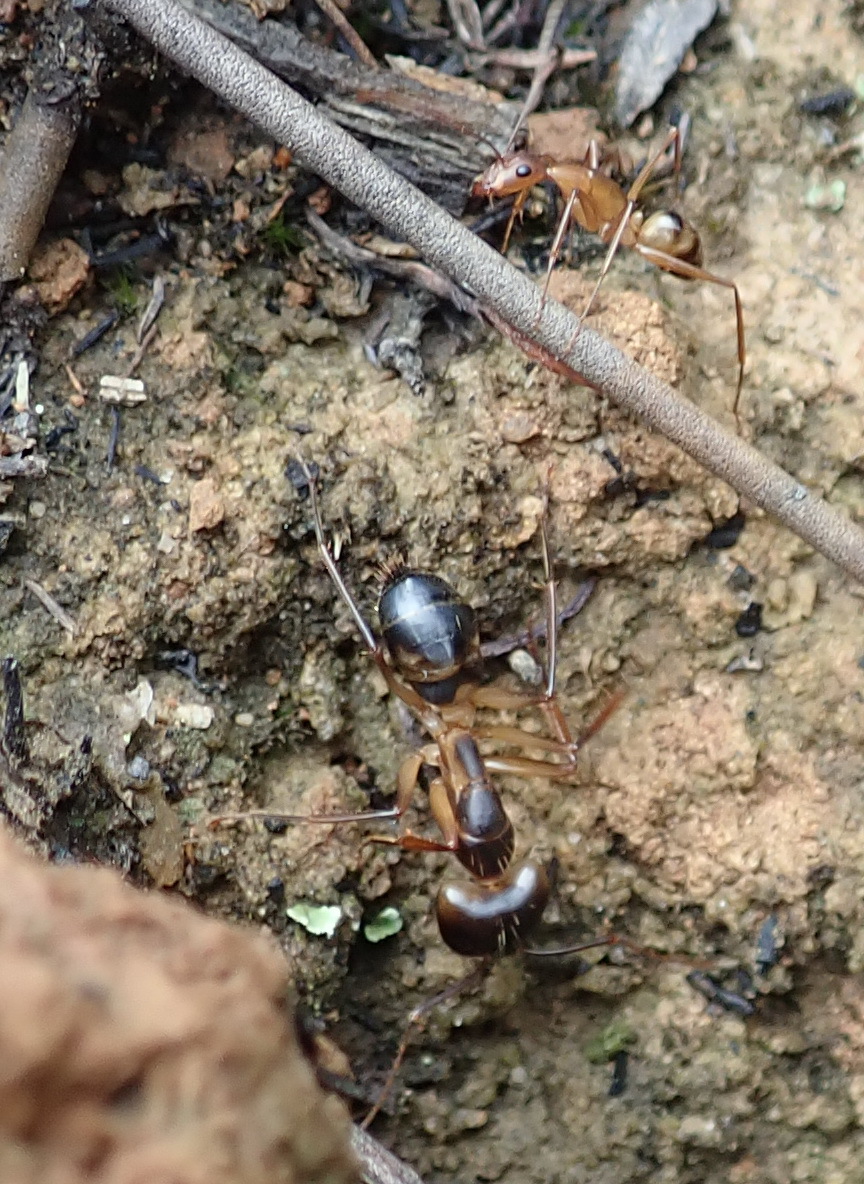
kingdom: Animalia
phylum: Arthropoda
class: Insecta
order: Hymenoptera
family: Formicidae
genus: Camponotus
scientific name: Camponotus maculatus
